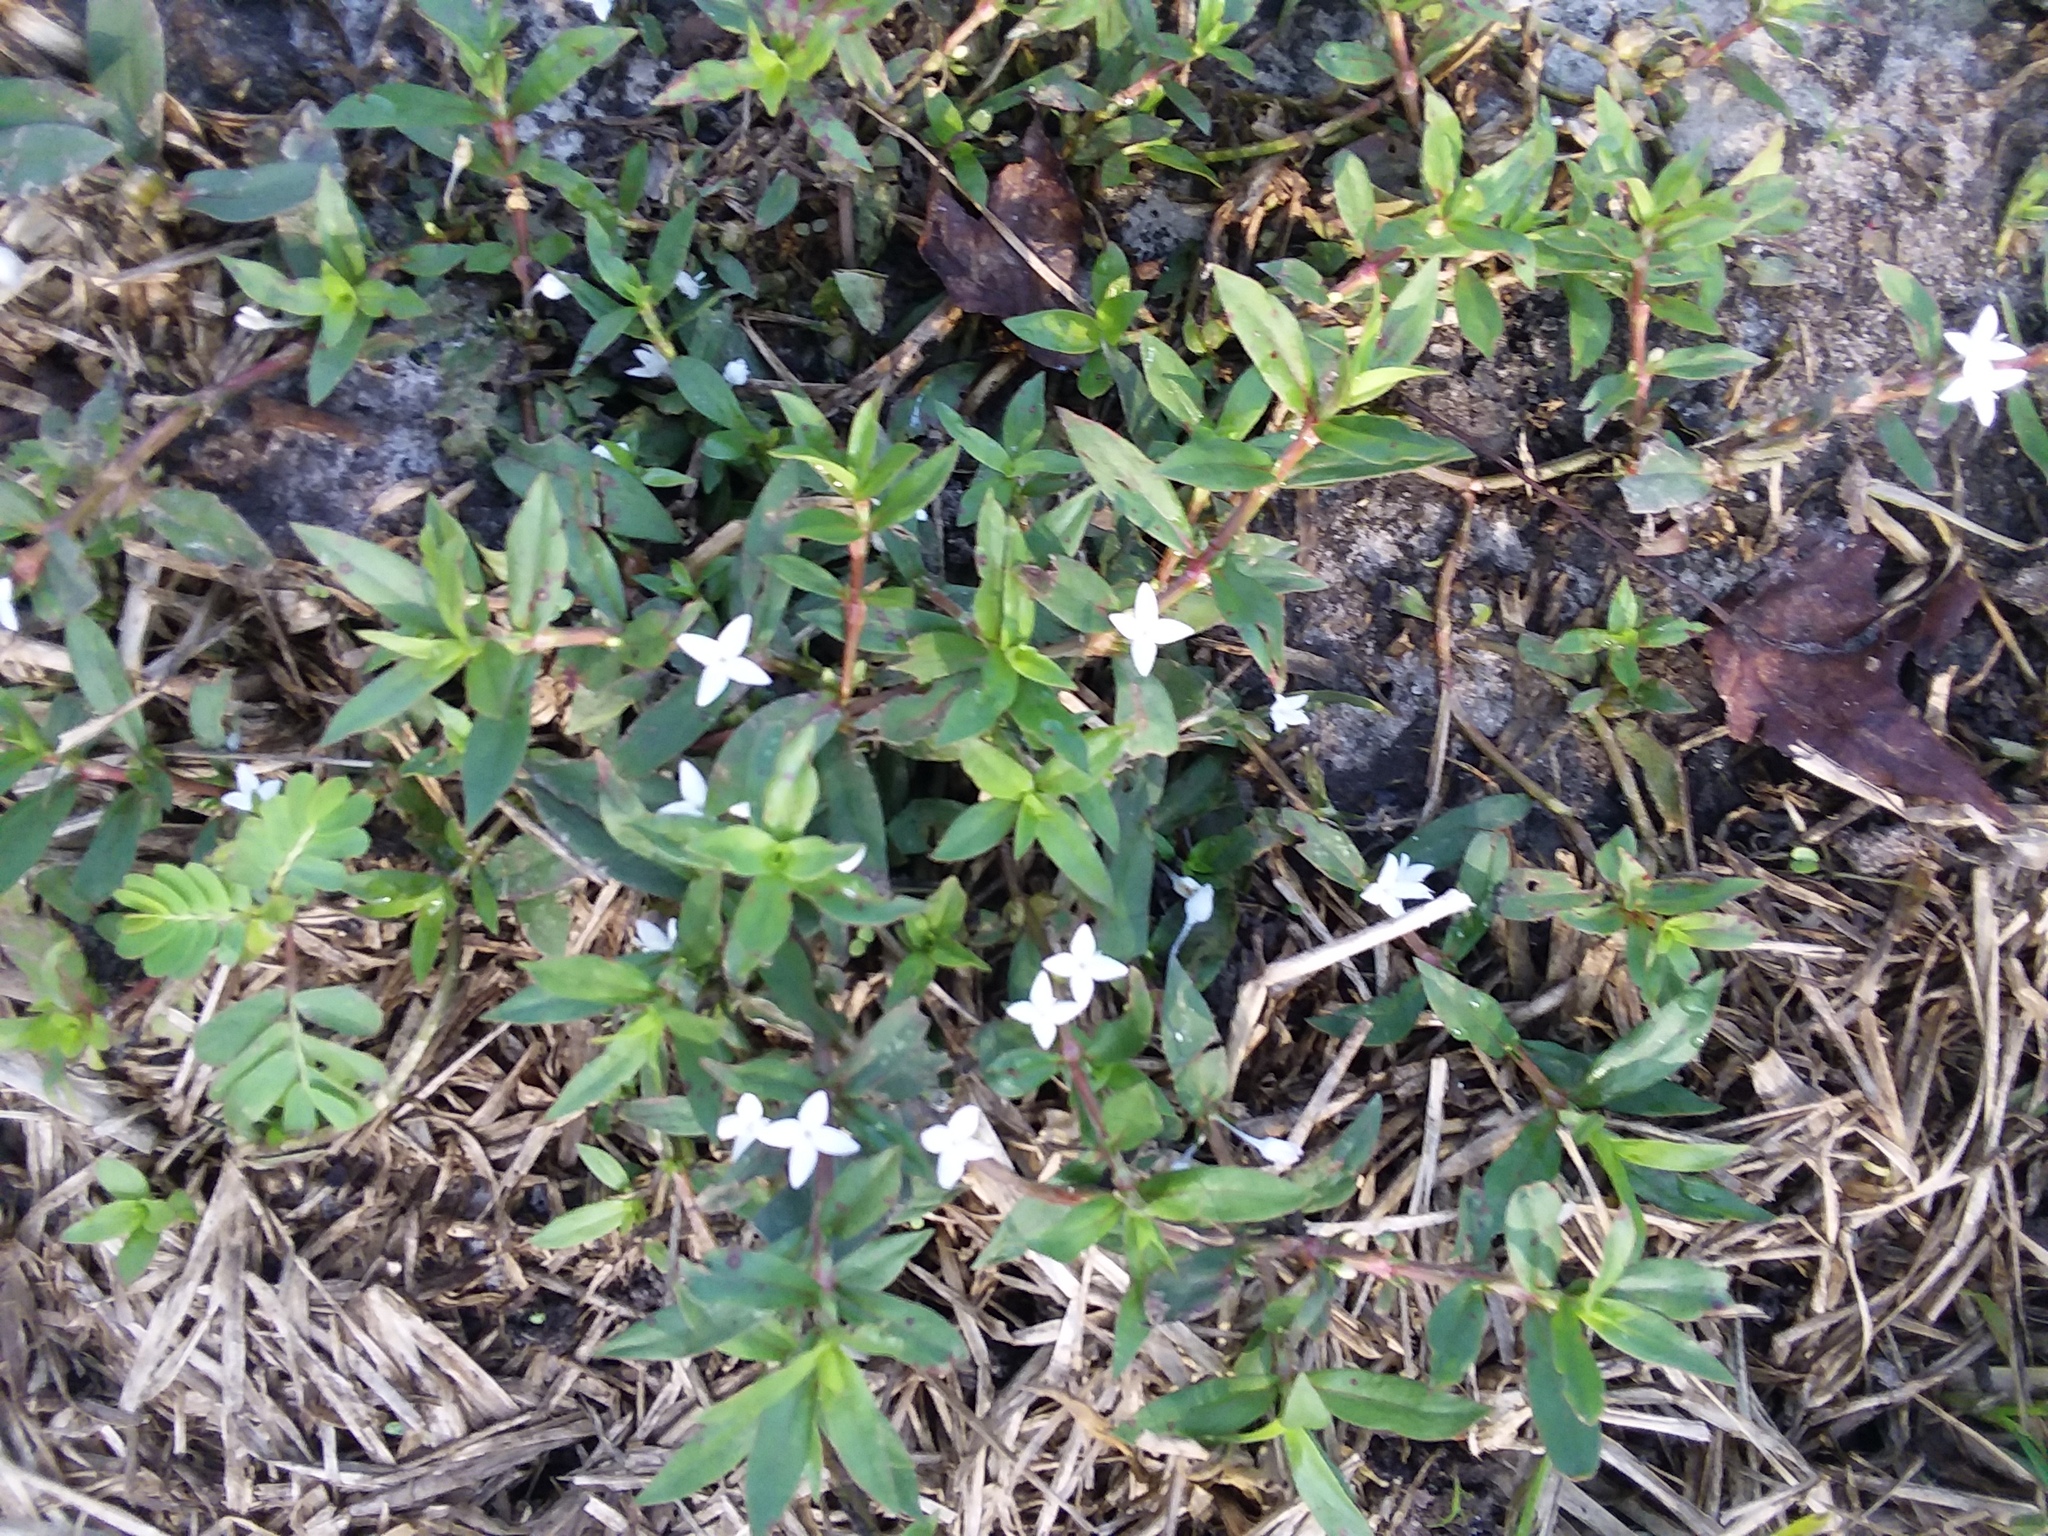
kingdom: Plantae
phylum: Tracheophyta
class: Magnoliopsida
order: Gentianales
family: Rubiaceae
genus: Diodia
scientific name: Diodia virginiana
